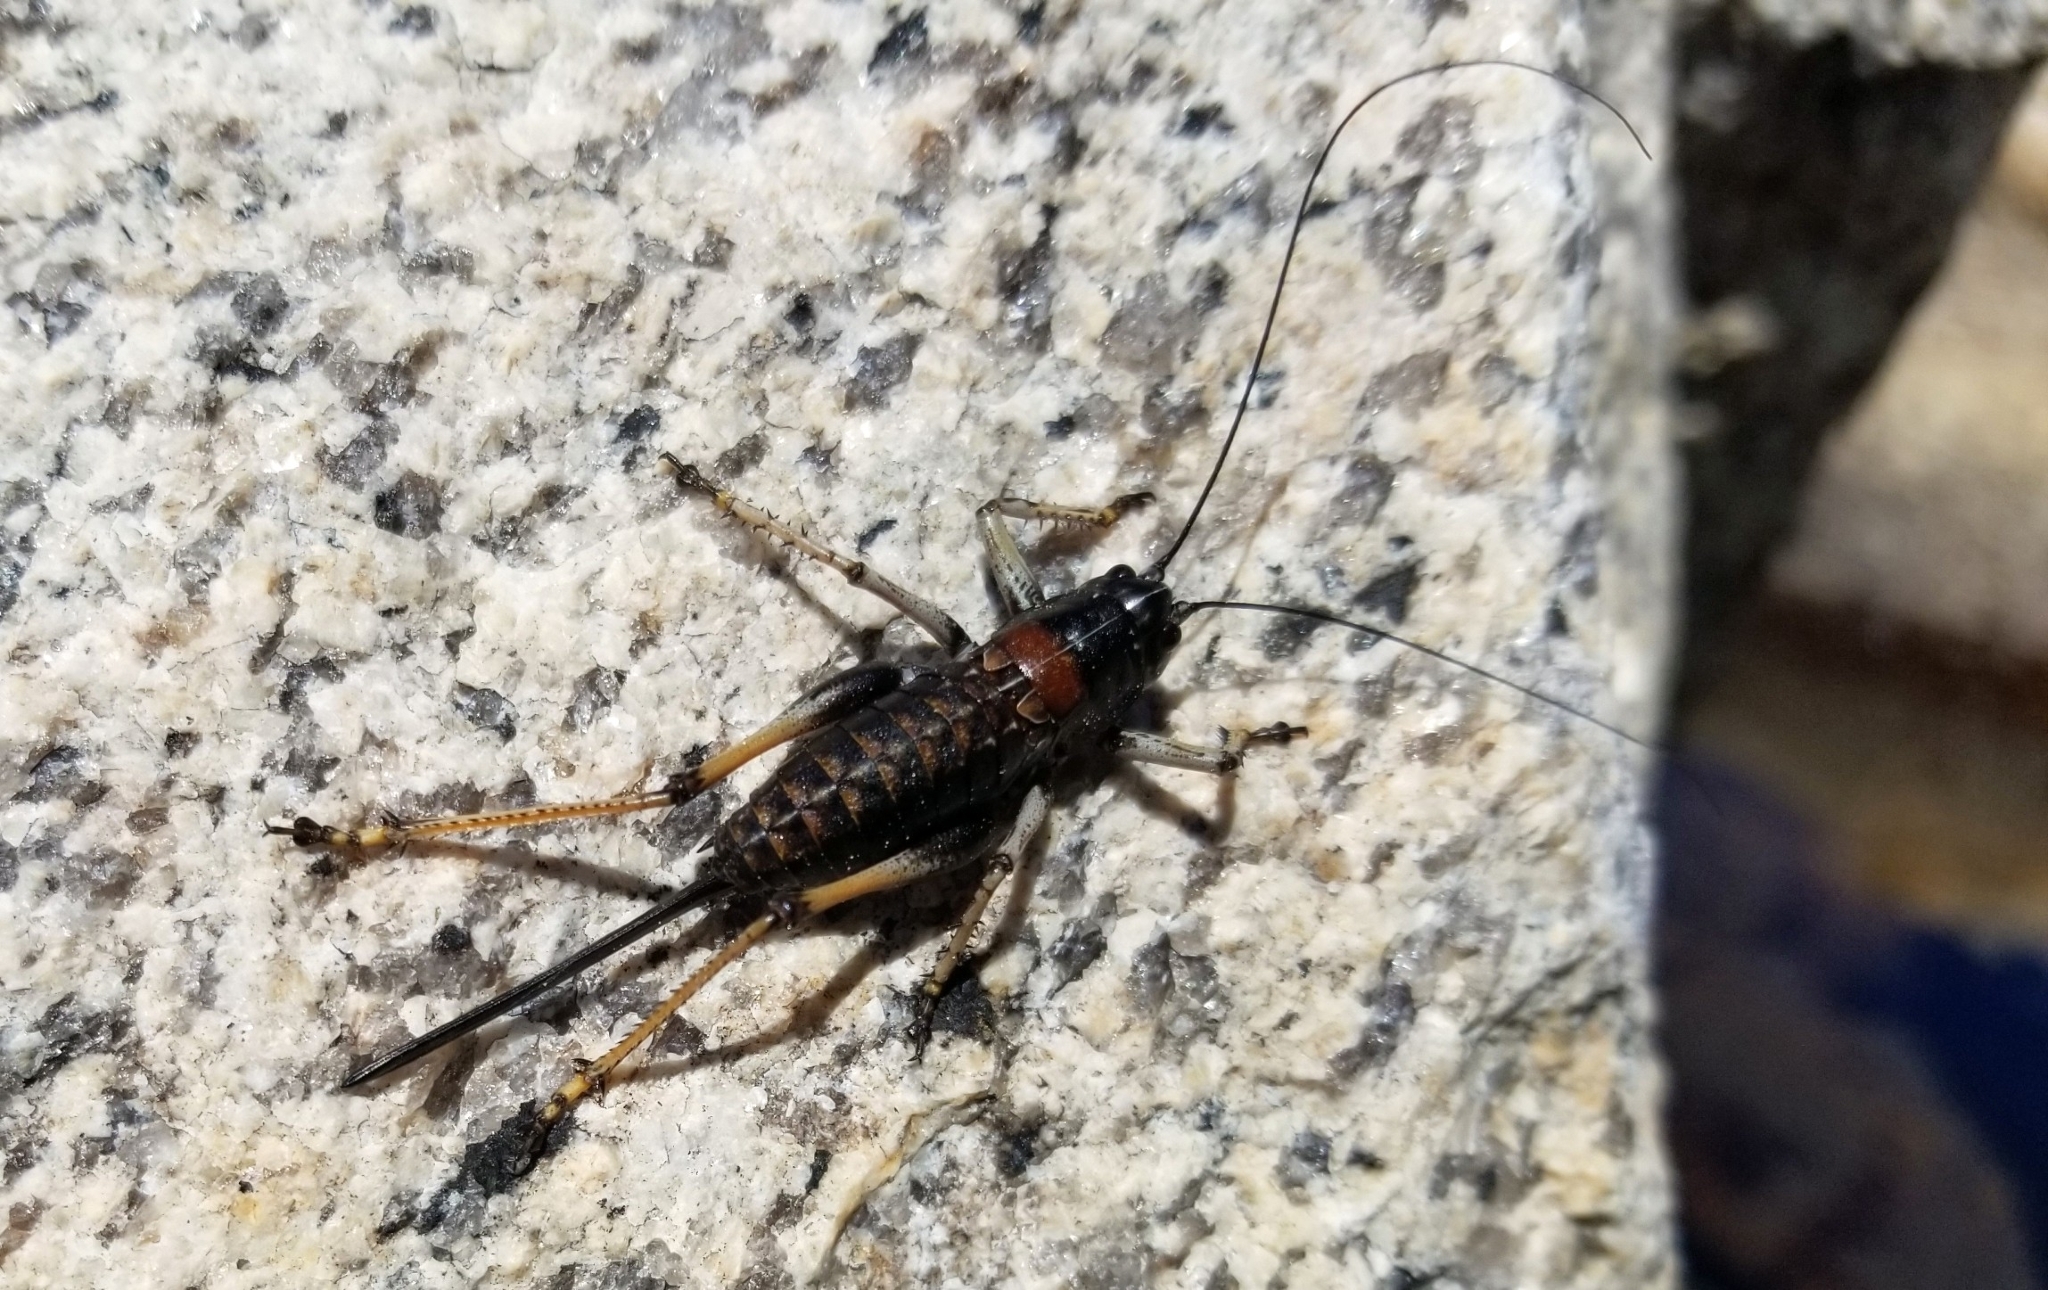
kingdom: Animalia
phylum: Arthropoda
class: Insecta
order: Orthoptera
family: Tettigoniidae
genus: Acrodectes
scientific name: Acrodectes philopagus
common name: Alpine shieldback
